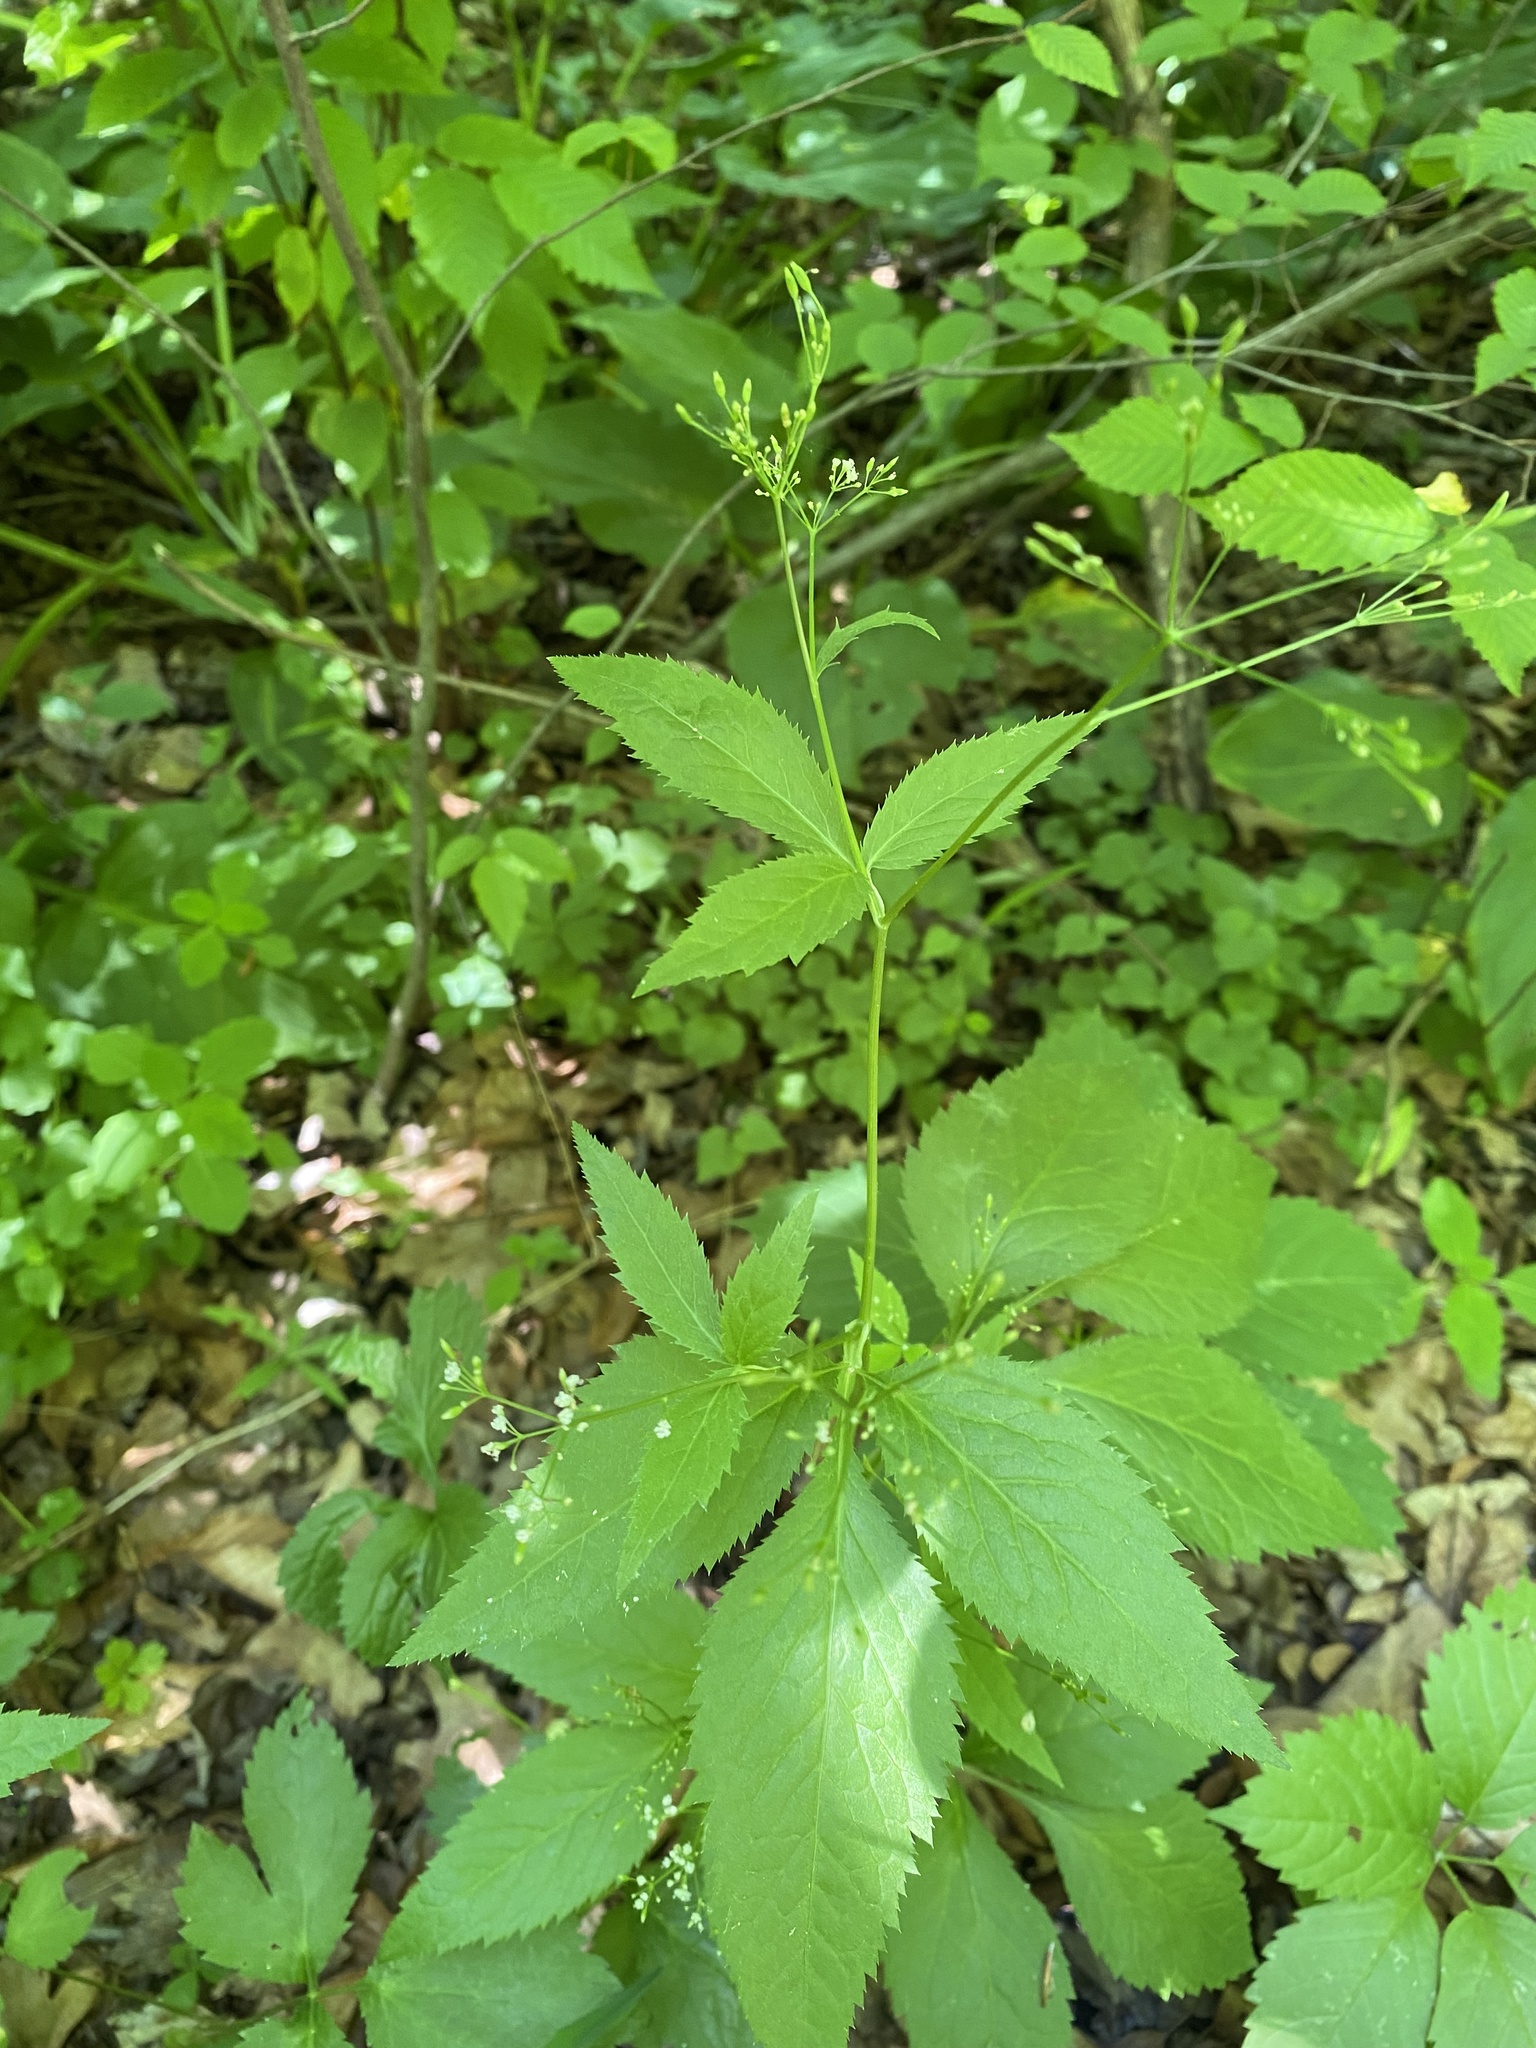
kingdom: Plantae
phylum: Tracheophyta
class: Magnoliopsida
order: Apiales
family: Apiaceae
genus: Cryptotaenia
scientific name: Cryptotaenia canadensis
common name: Honewort
